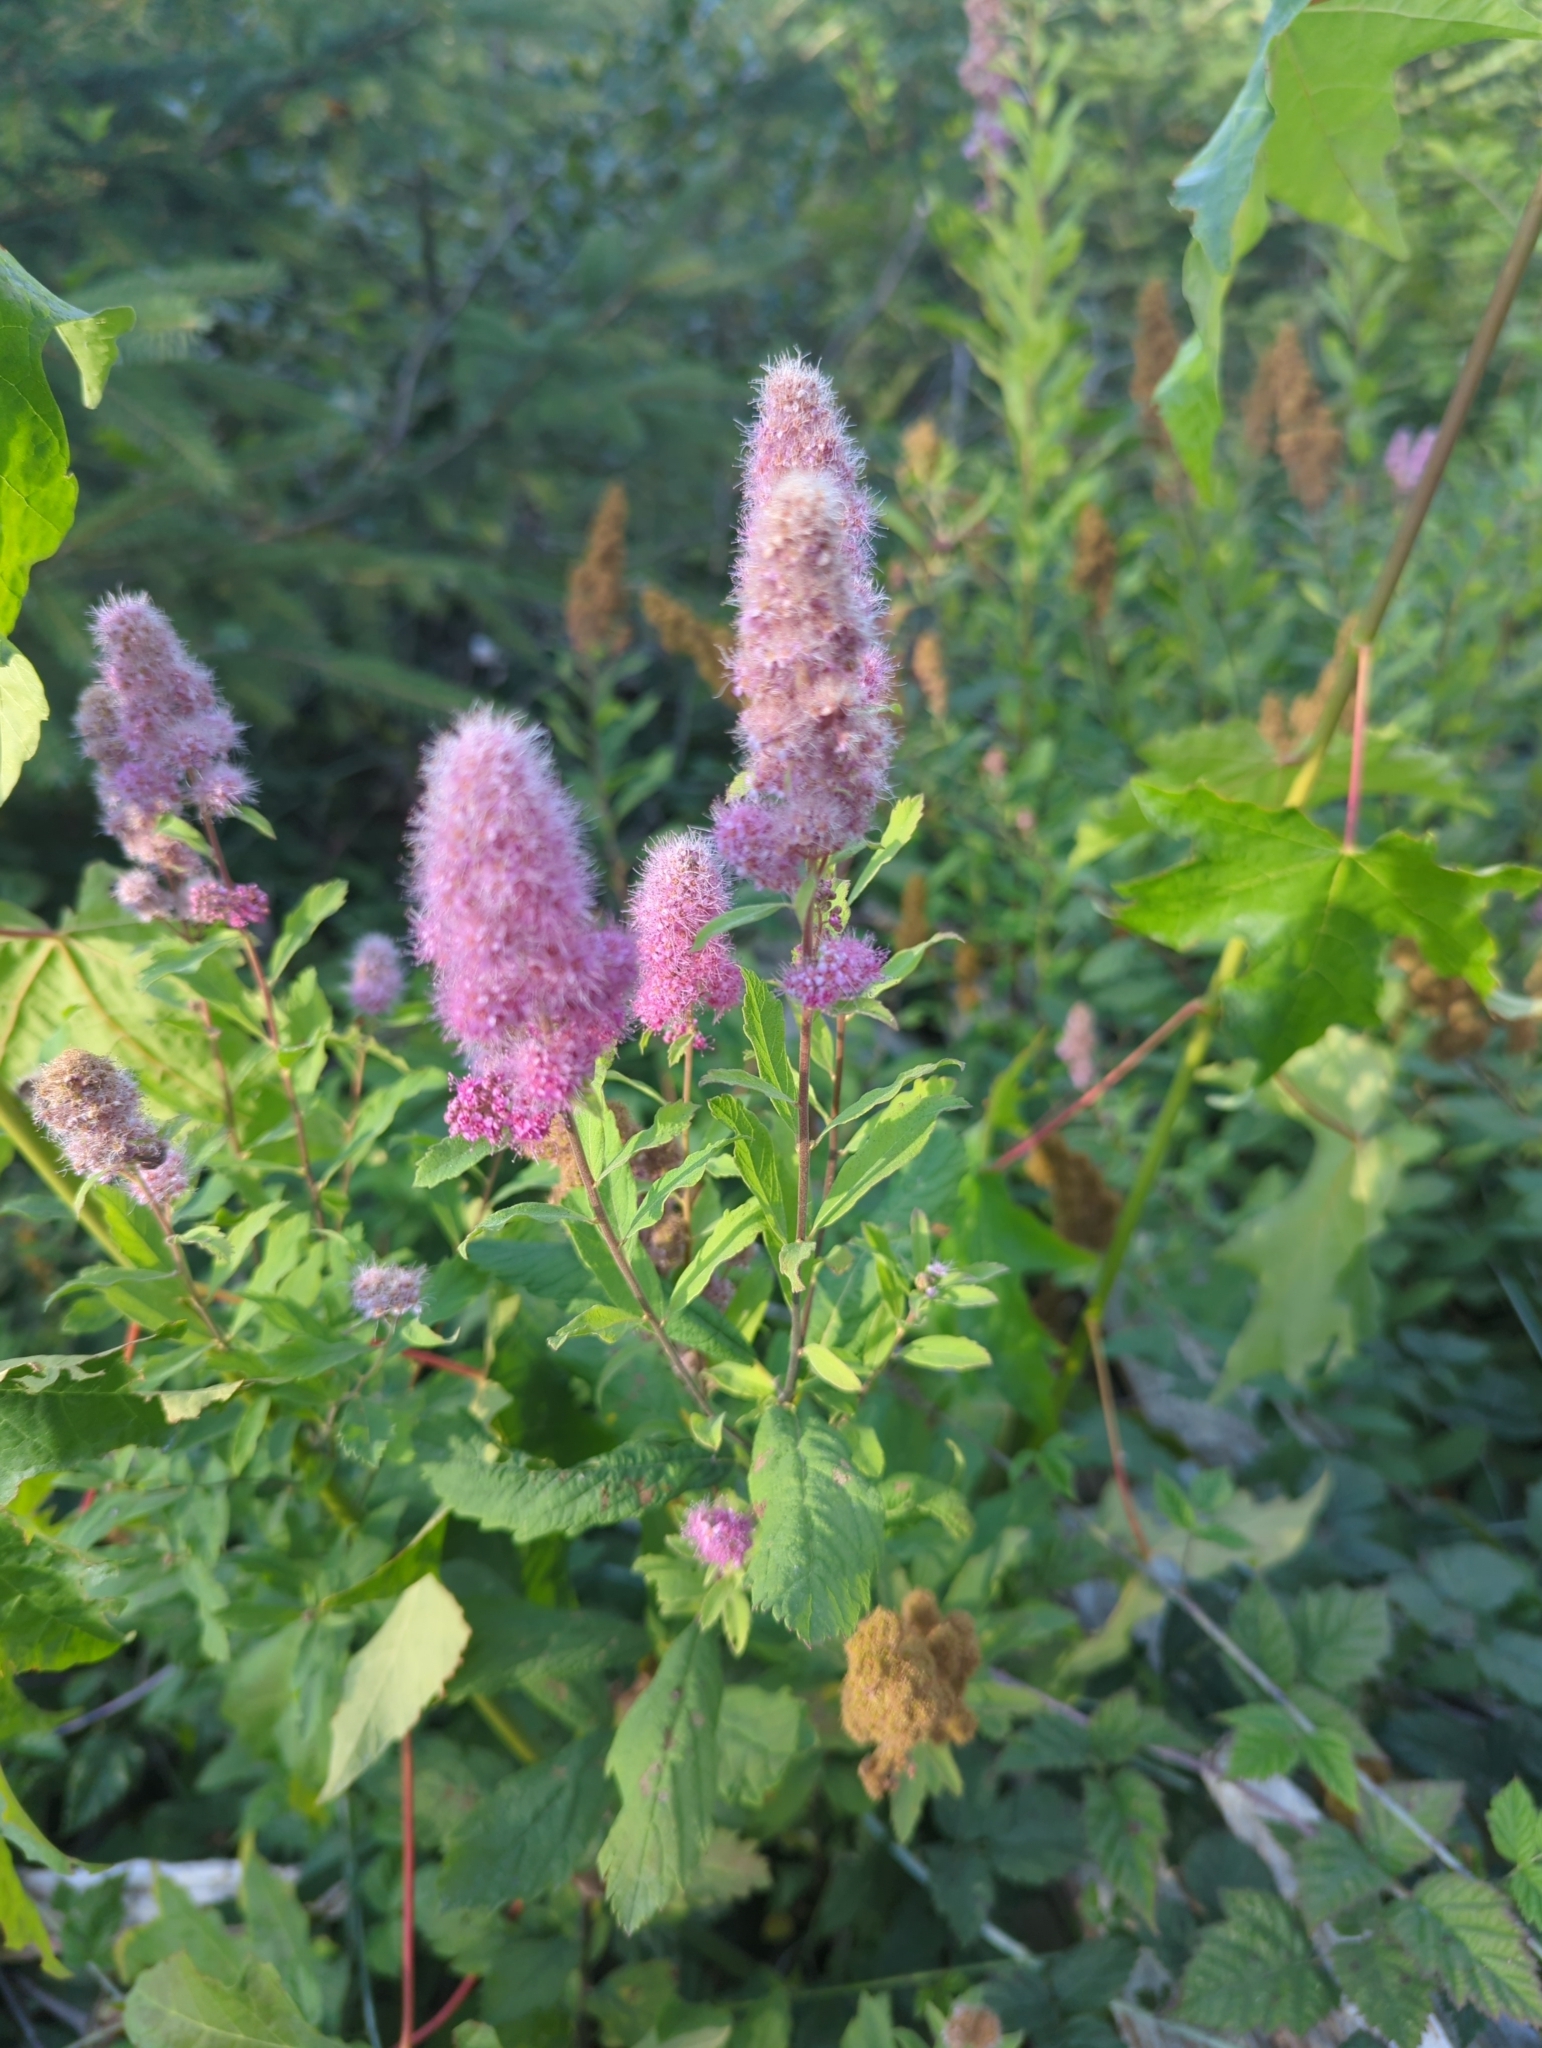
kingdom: Plantae
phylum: Tracheophyta
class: Magnoliopsida
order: Rosales
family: Rosaceae
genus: Spiraea
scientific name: Spiraea douglasii
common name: Steeplebush
